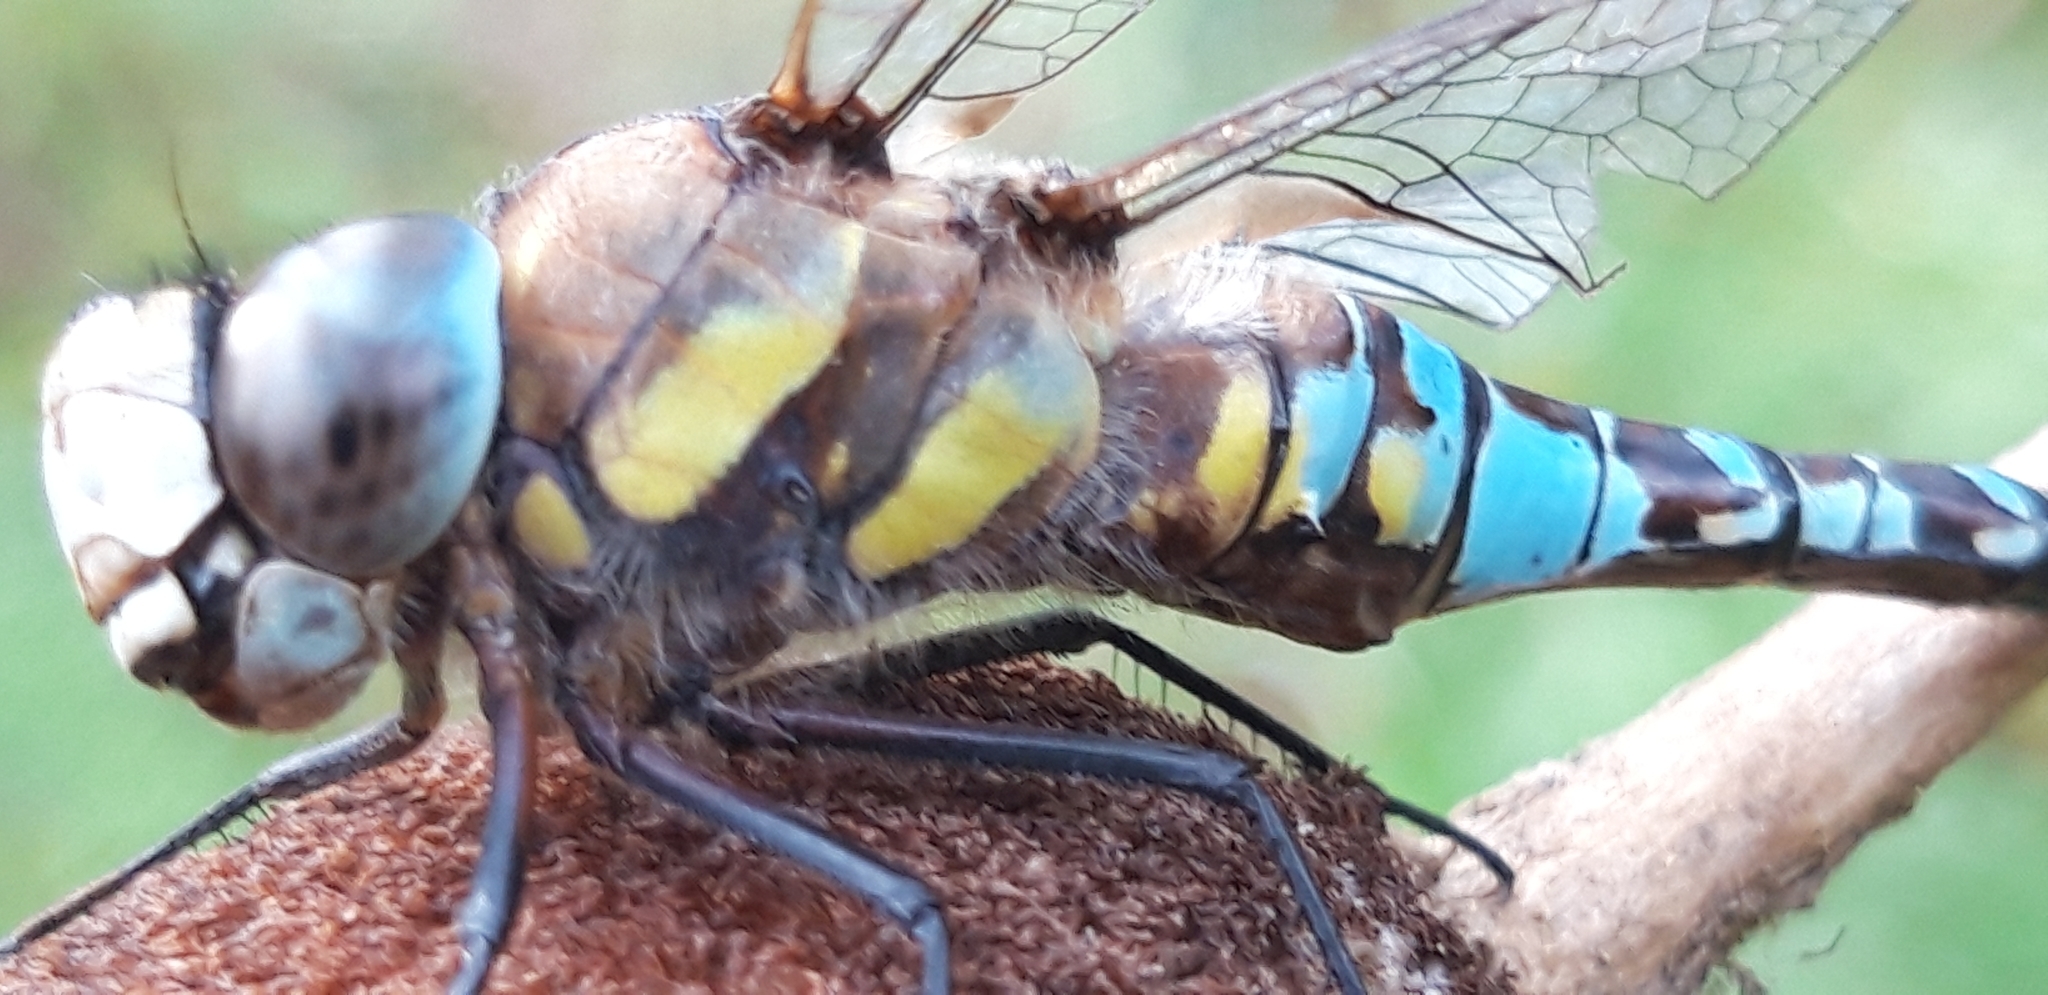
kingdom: Animalia
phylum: Arthropoda
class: Insecta
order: Odonata
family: Aeshnidae
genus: Aeshna
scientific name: Aeshna mixta
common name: Migrant hawker
